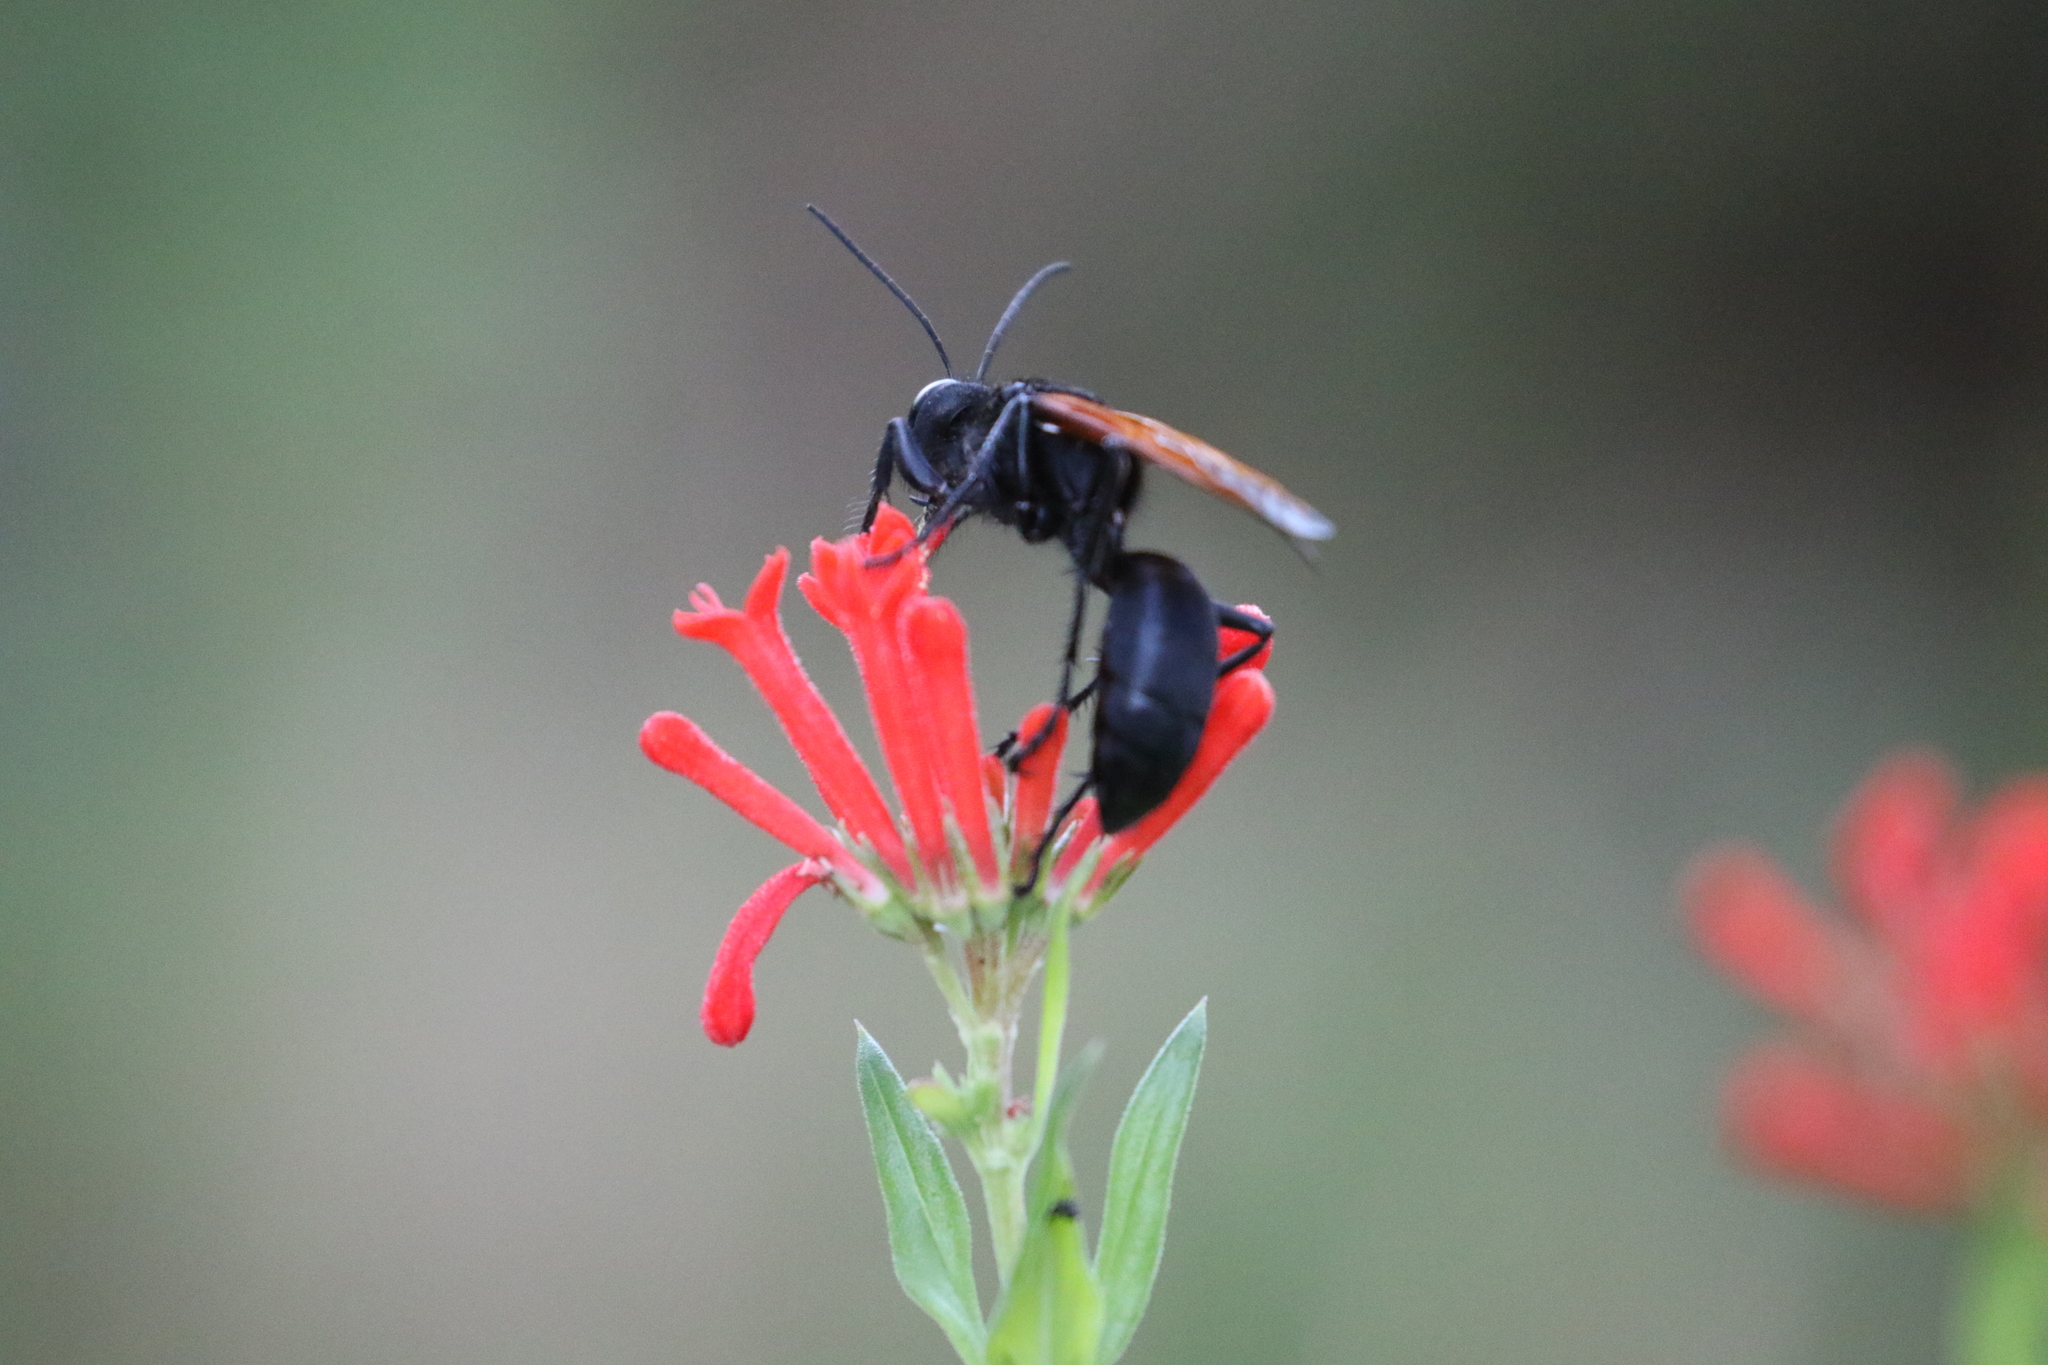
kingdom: Animalia
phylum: Arthropoda
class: Insecta
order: Hymenoptera
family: Sphecidae
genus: Sphex
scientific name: Sphex tepanecus
